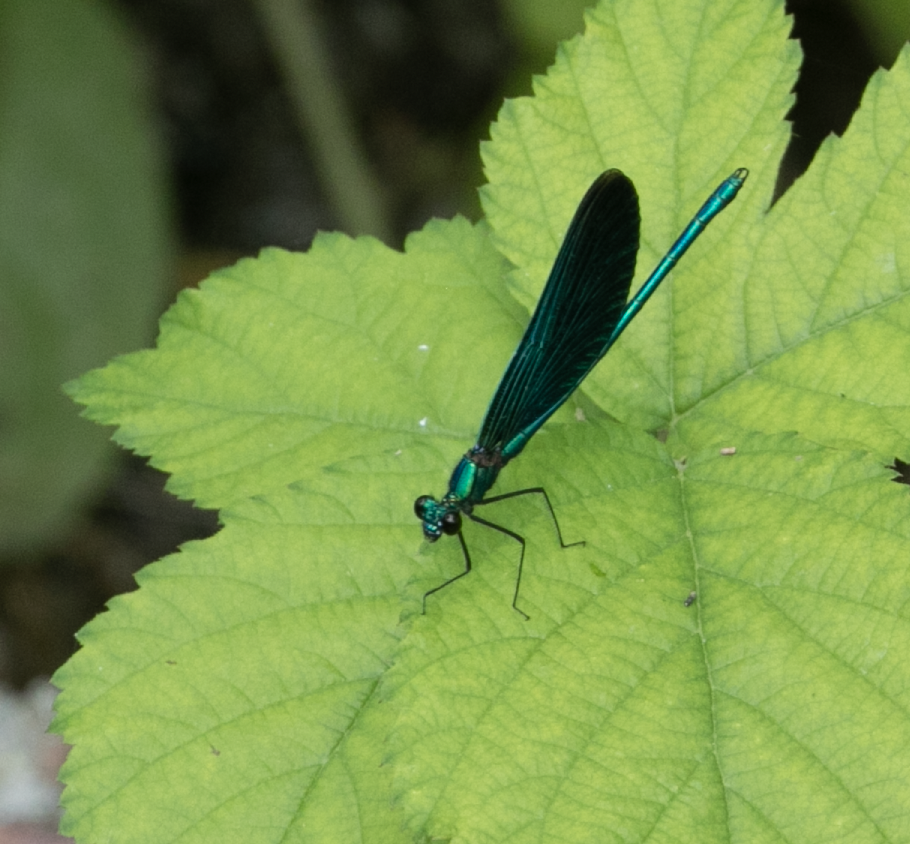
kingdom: Animalia
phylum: Arthropoda
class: Insecta
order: Odonata
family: Calopterygidae
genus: Calopteryx
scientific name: Calopteryx virgo
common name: Beautiful demoiselle
